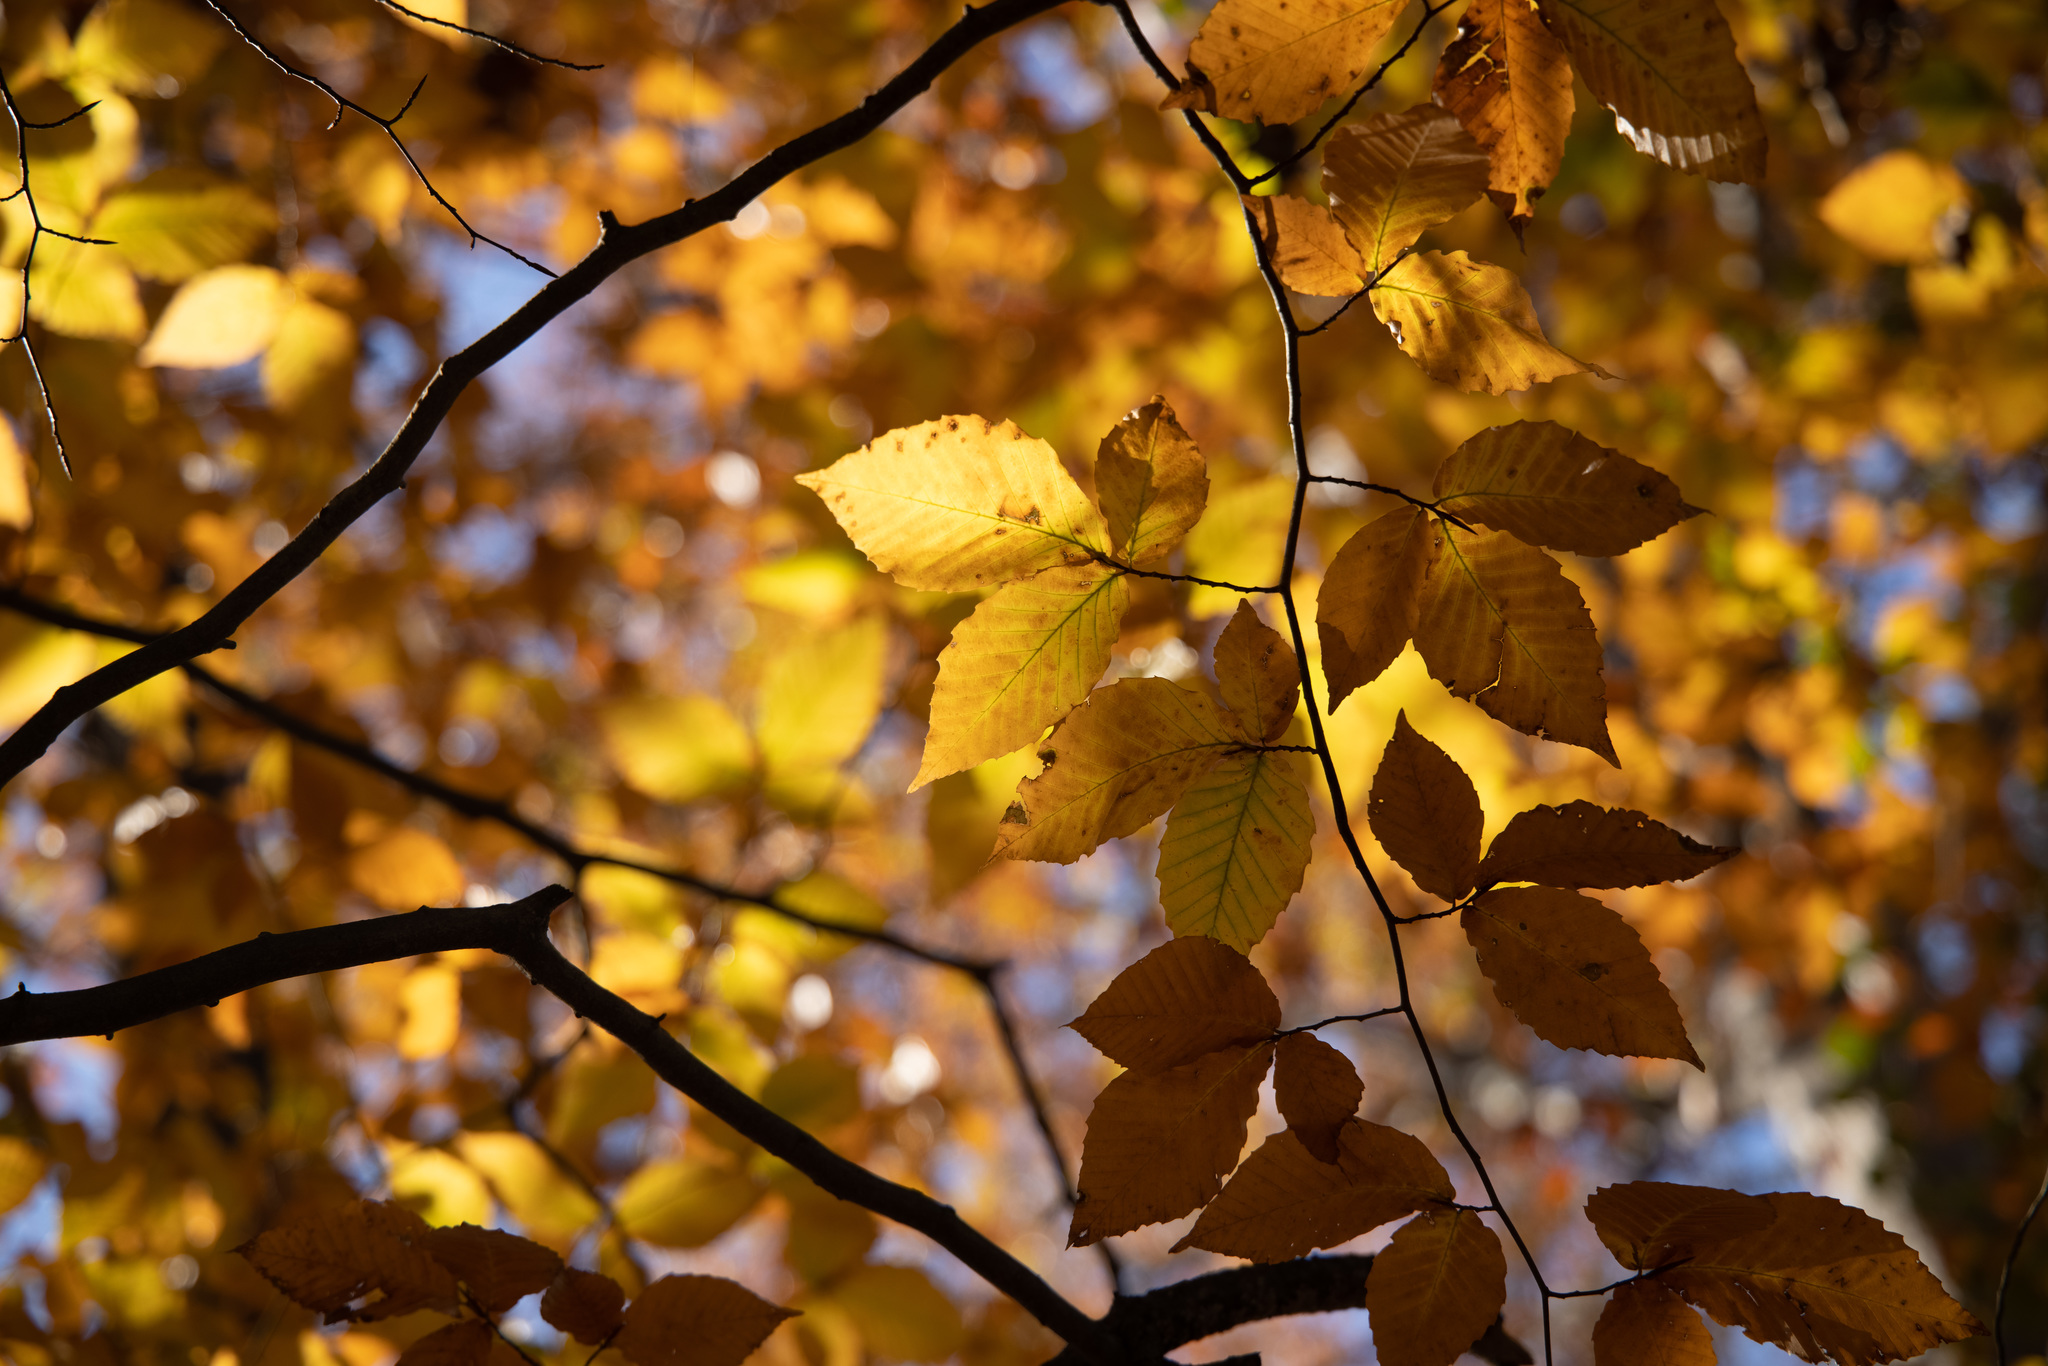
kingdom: Plantae
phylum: Tracheophyta
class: Magnoliopsida
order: Fagales
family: Fagaceae
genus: Fagus
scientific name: Fagus grandifolia
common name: American beech
